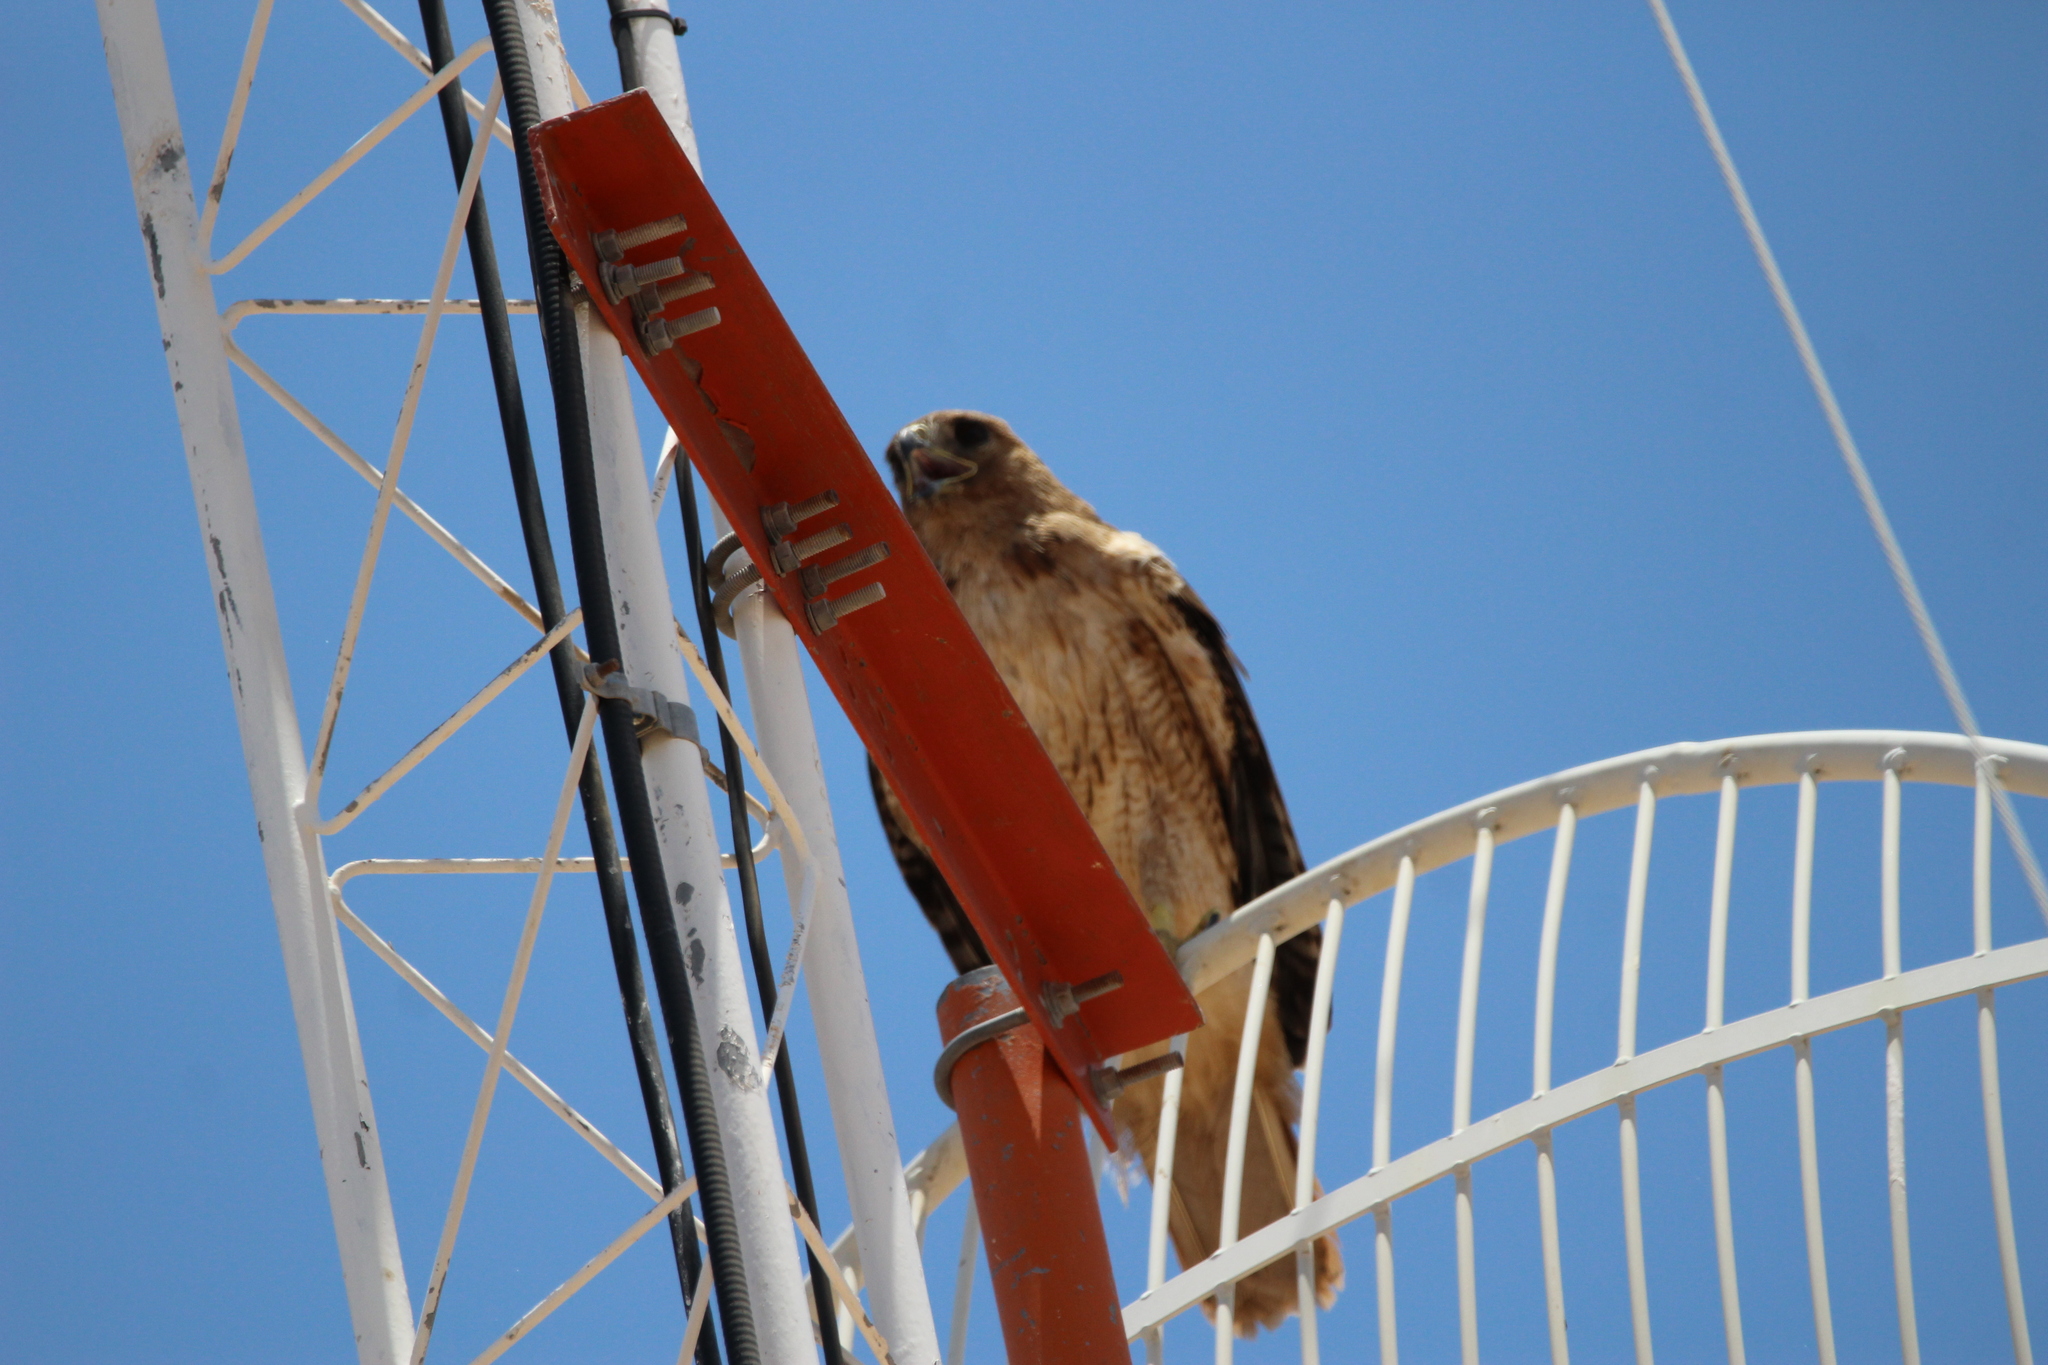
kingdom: Animalia
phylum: Chordata
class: Aves
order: Accipitriformes
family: Accipitridae
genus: Buteo
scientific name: Buteo jamaicensis
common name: Red-tailed hawk
